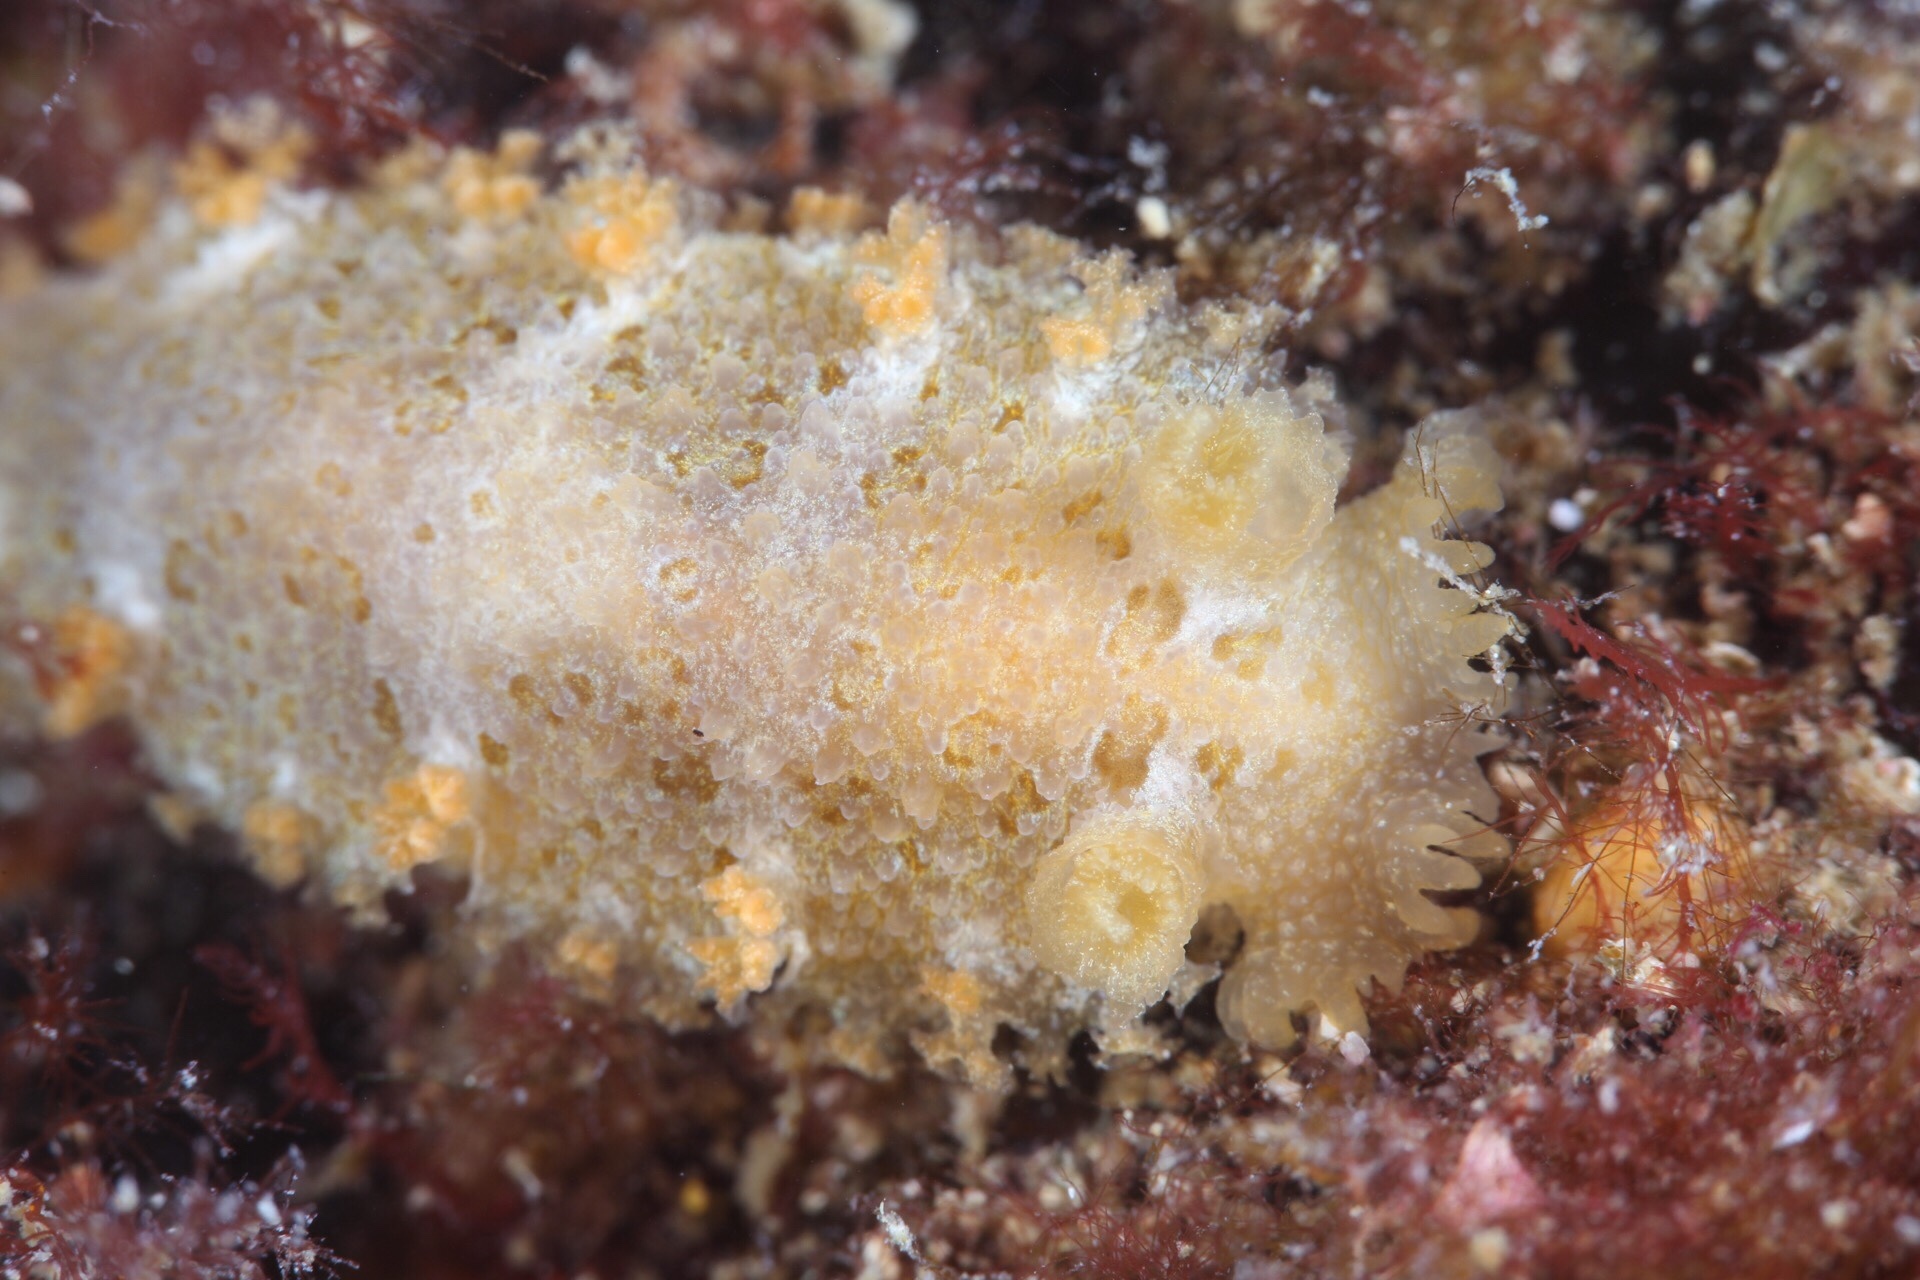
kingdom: Animalia
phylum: Mollusca
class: Gastropoda
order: Nudibranchia
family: Tritoniidae
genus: Tritonia
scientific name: Tritonia hombergii
